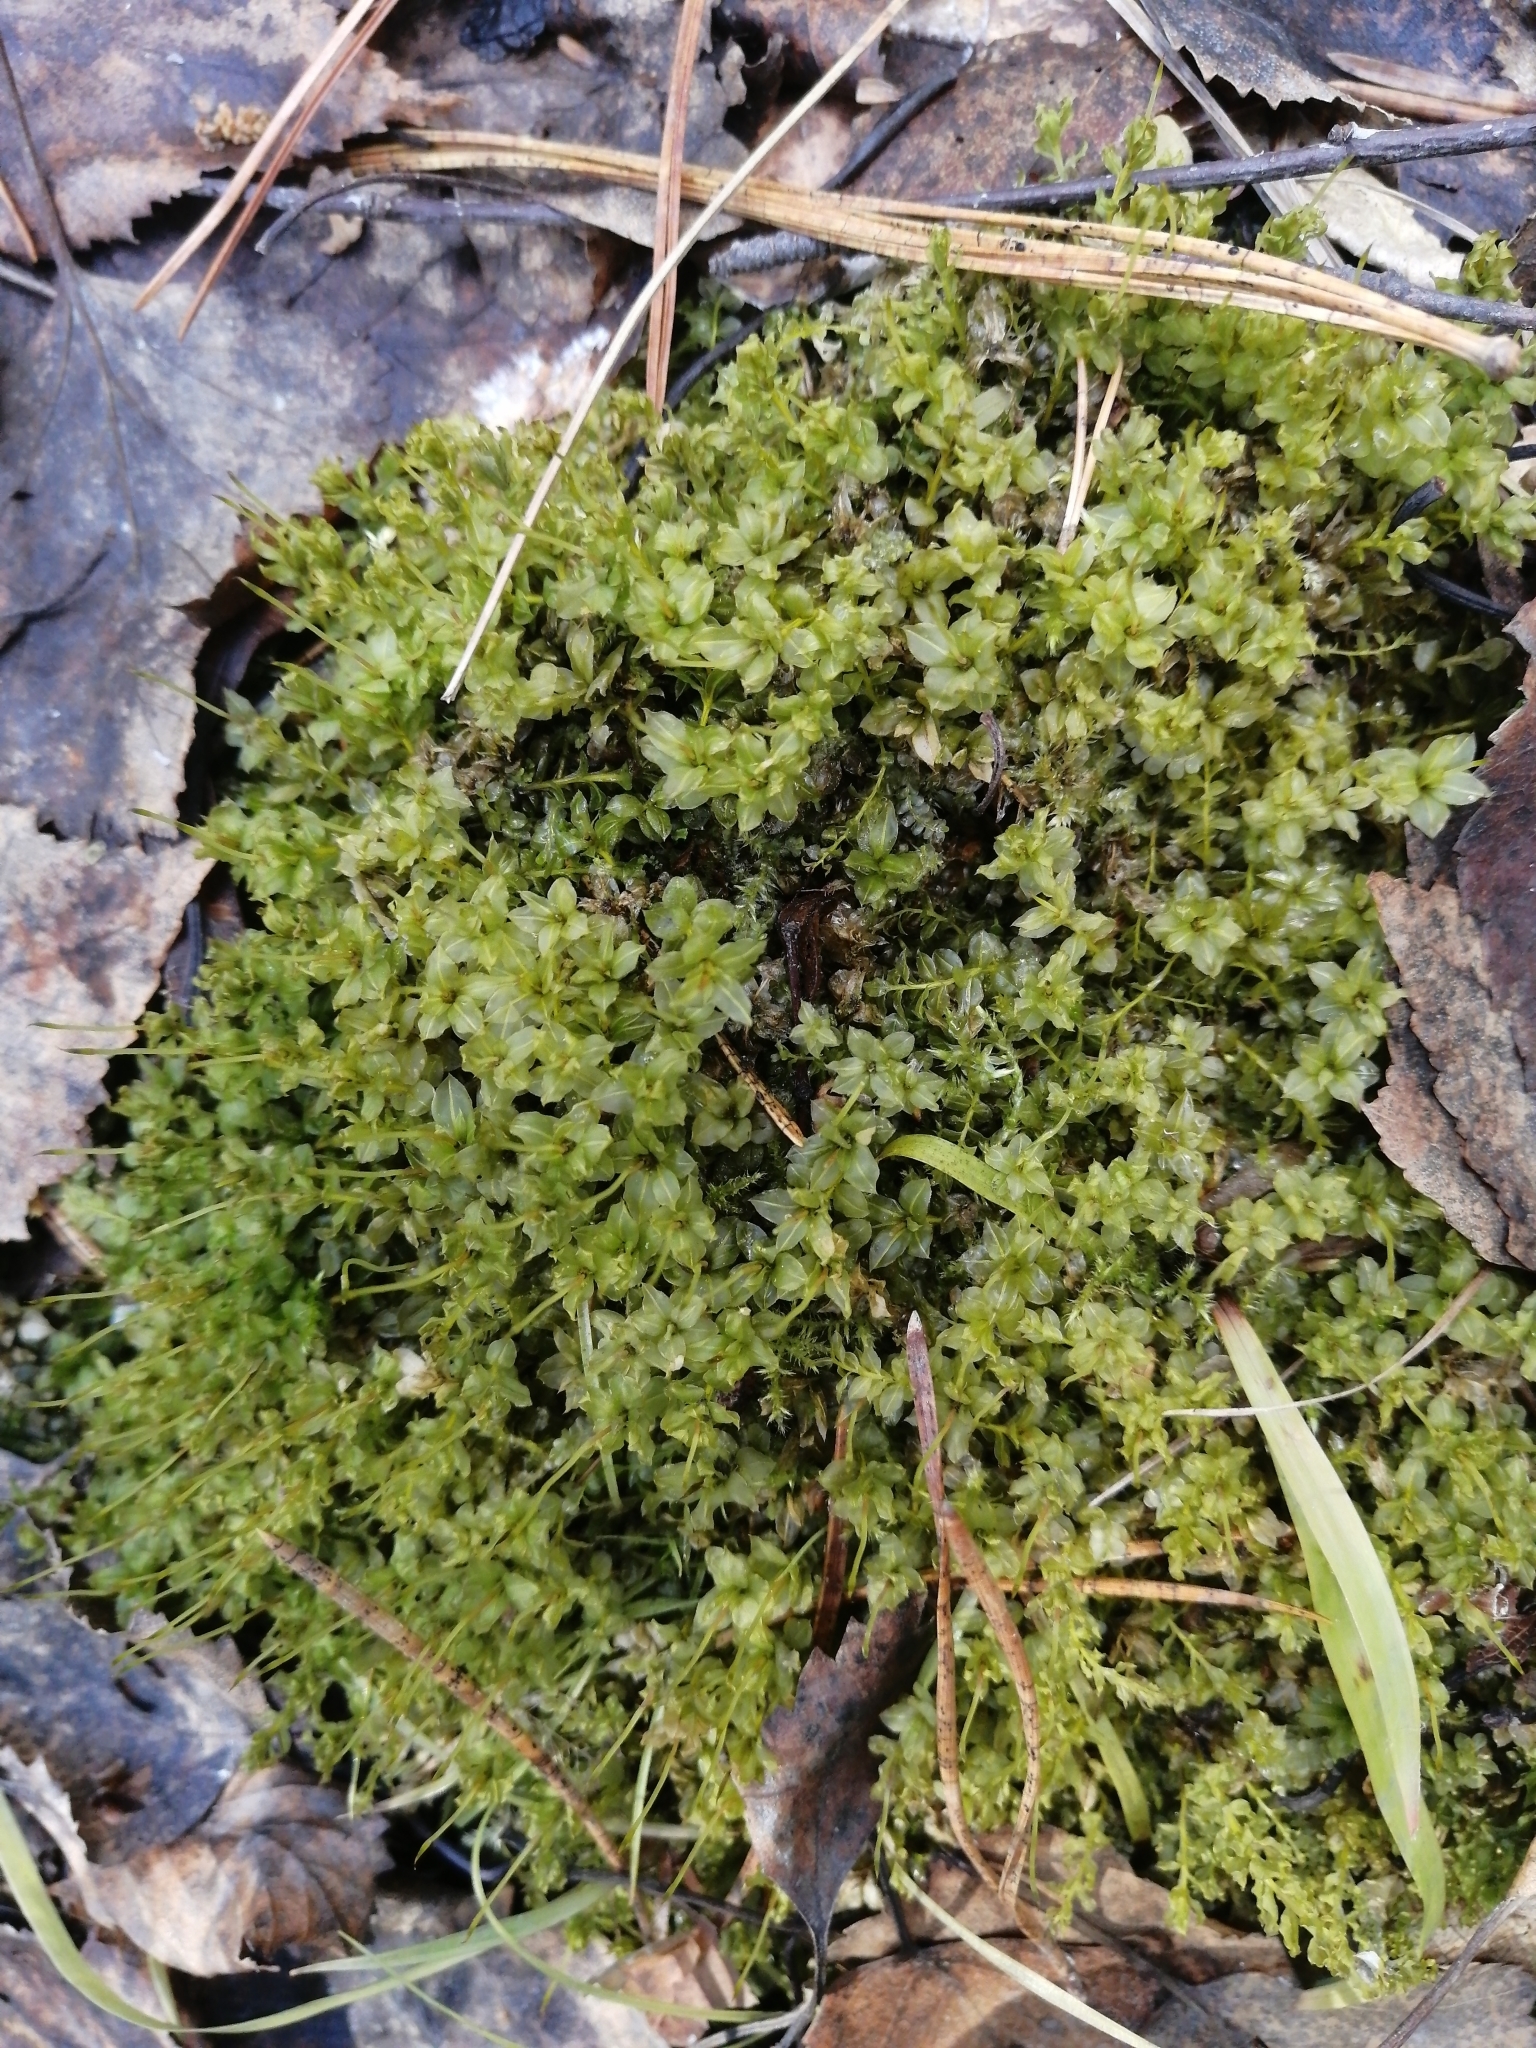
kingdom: Plantae
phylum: Bryophyta
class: Bryopsida
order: Bryales
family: Mniaceae
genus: Plagiomnium
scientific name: Plagiomnium ellipticum
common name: Marsh leafy moss
